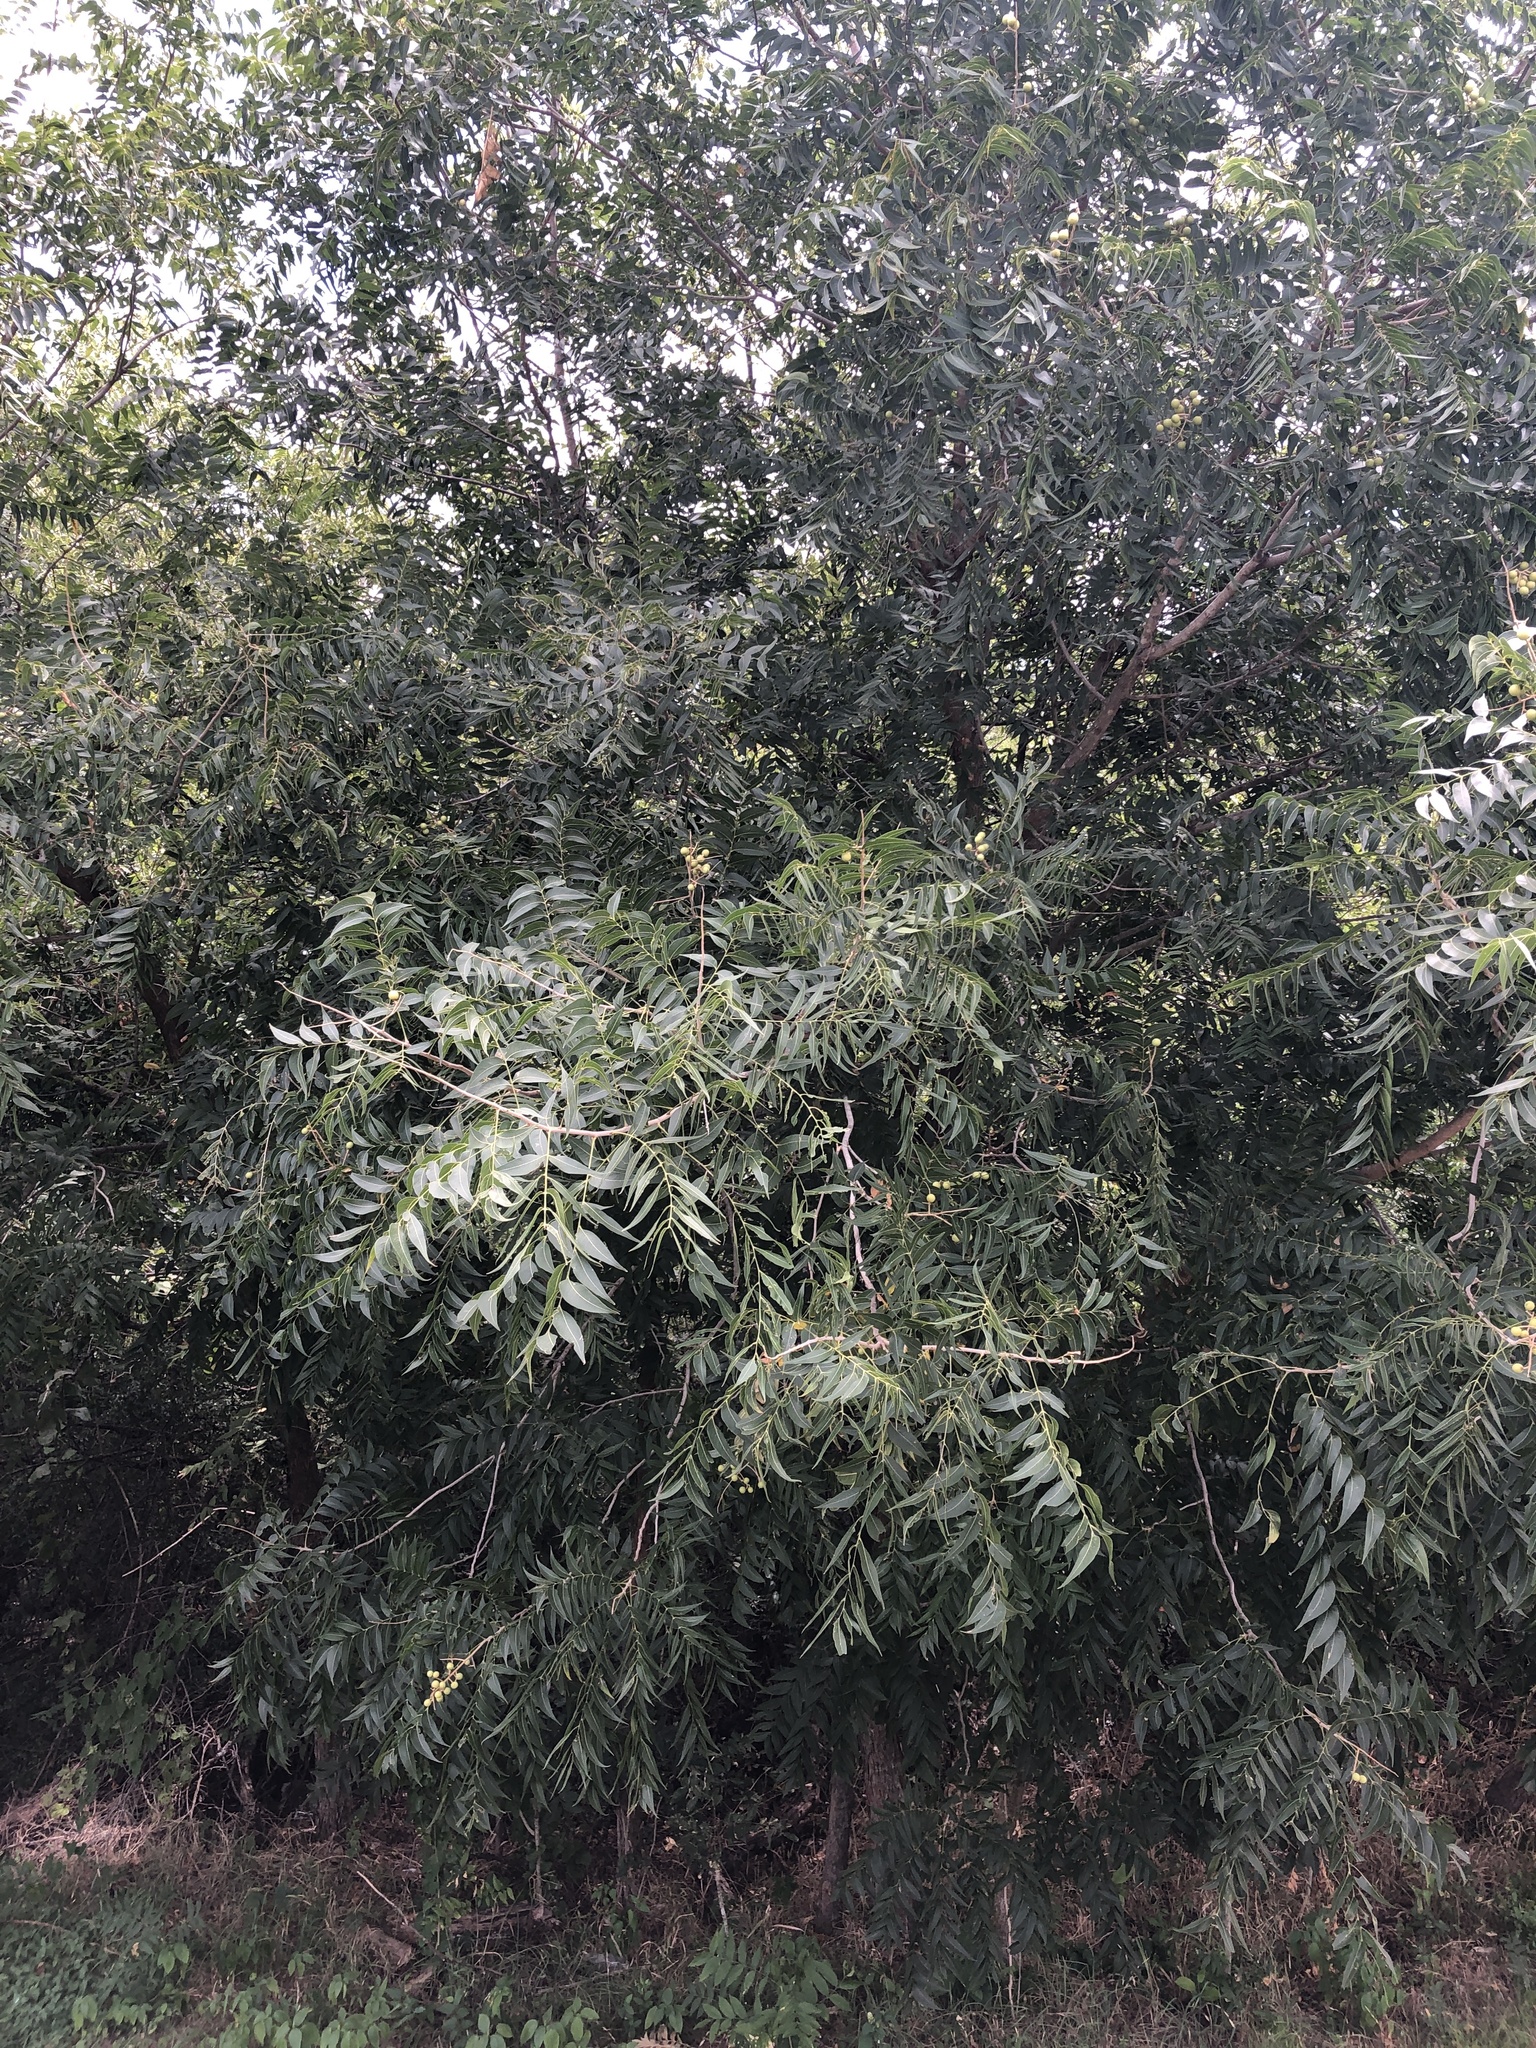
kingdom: Plantae
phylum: Tracheophyta
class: Magnoliopsida
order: Sapindales
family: Sapindaceae
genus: Sapindus
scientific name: Sapindus drummondii
